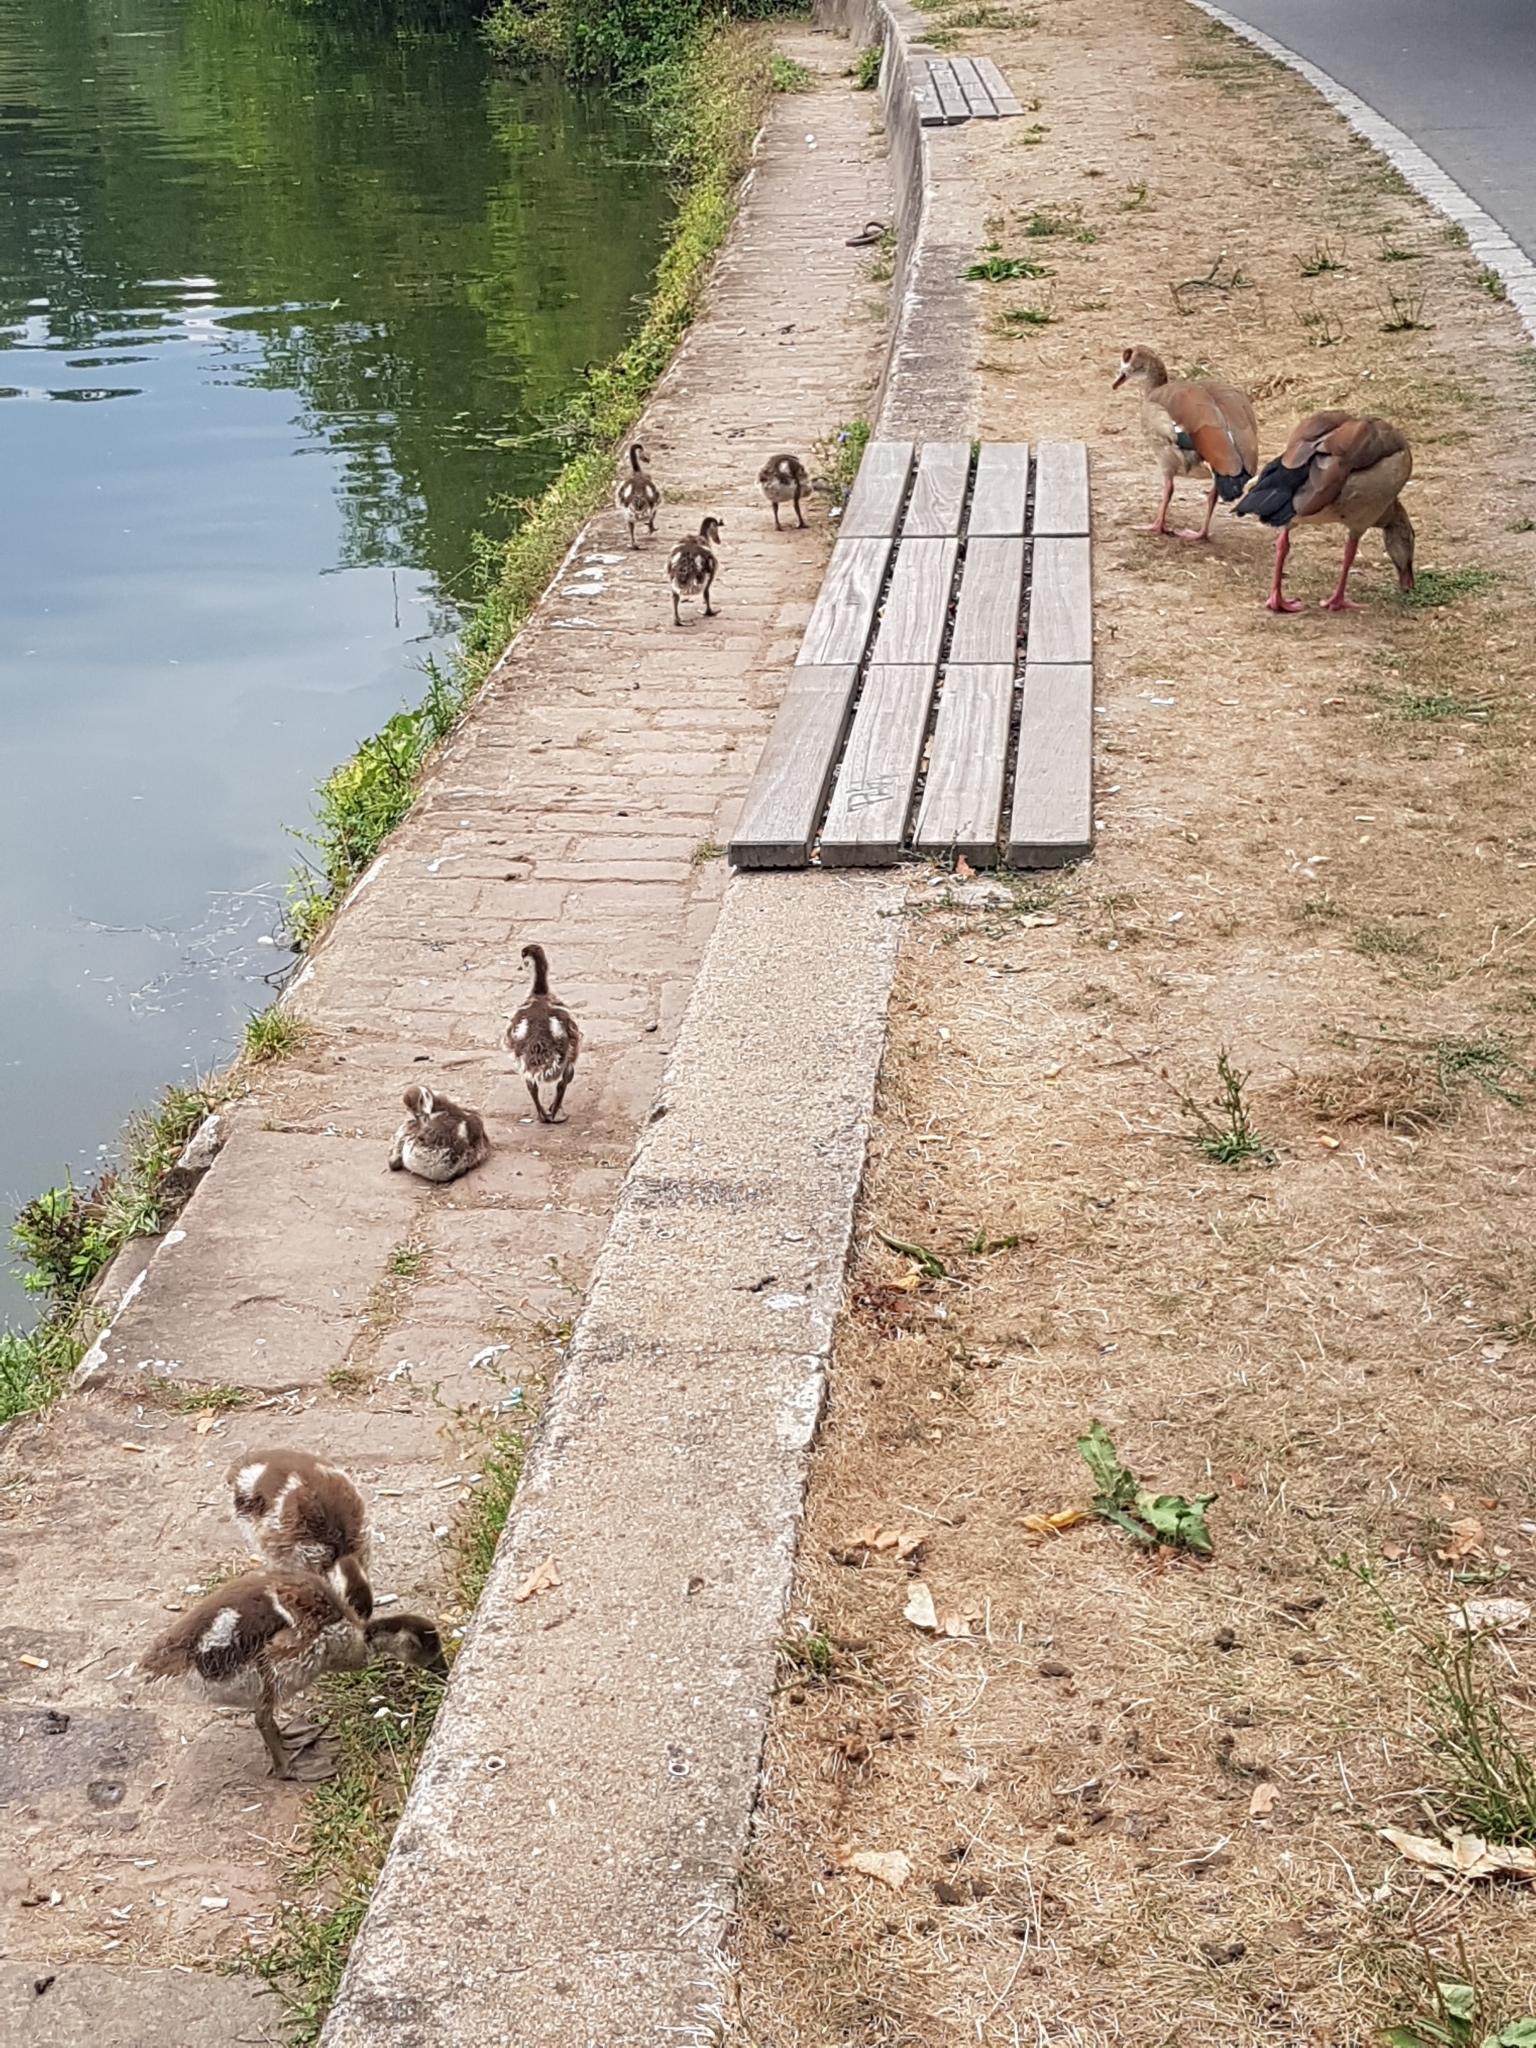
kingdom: Animalia
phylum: Chordata
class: Aves
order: Anseriformes
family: Anatidae
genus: Alopochen
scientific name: Alopochen aegyptiaca
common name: Egyptian goose
